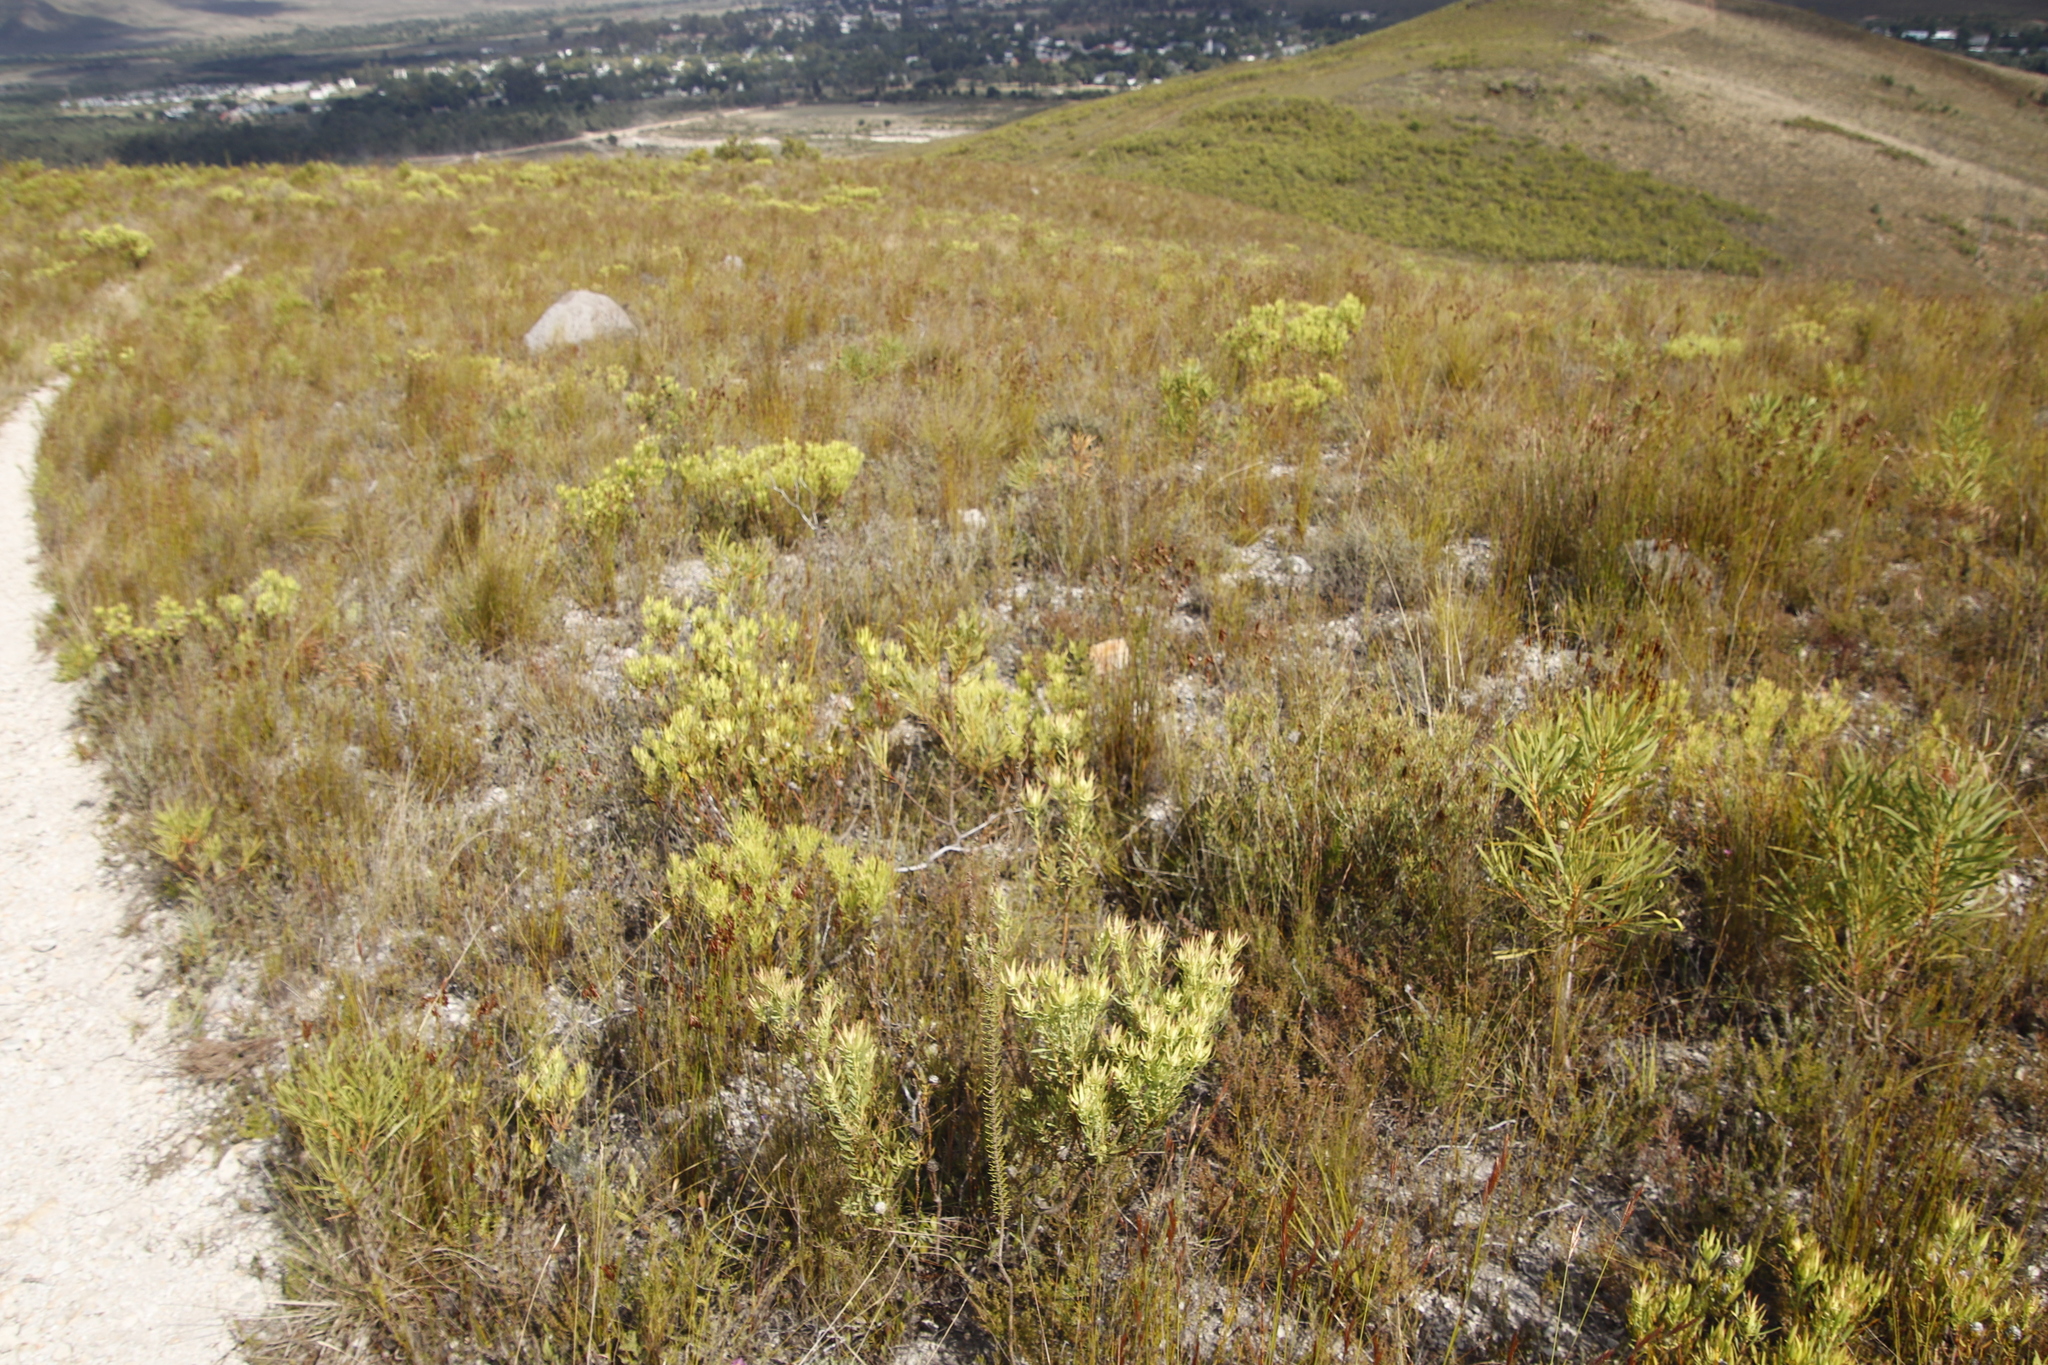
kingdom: Plantae
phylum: Tracheophyta
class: Magnoliopsida
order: Proteales
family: Proteaceae
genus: Leucadendron
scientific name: Leucadendron salignum
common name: Common sunshine conebush
